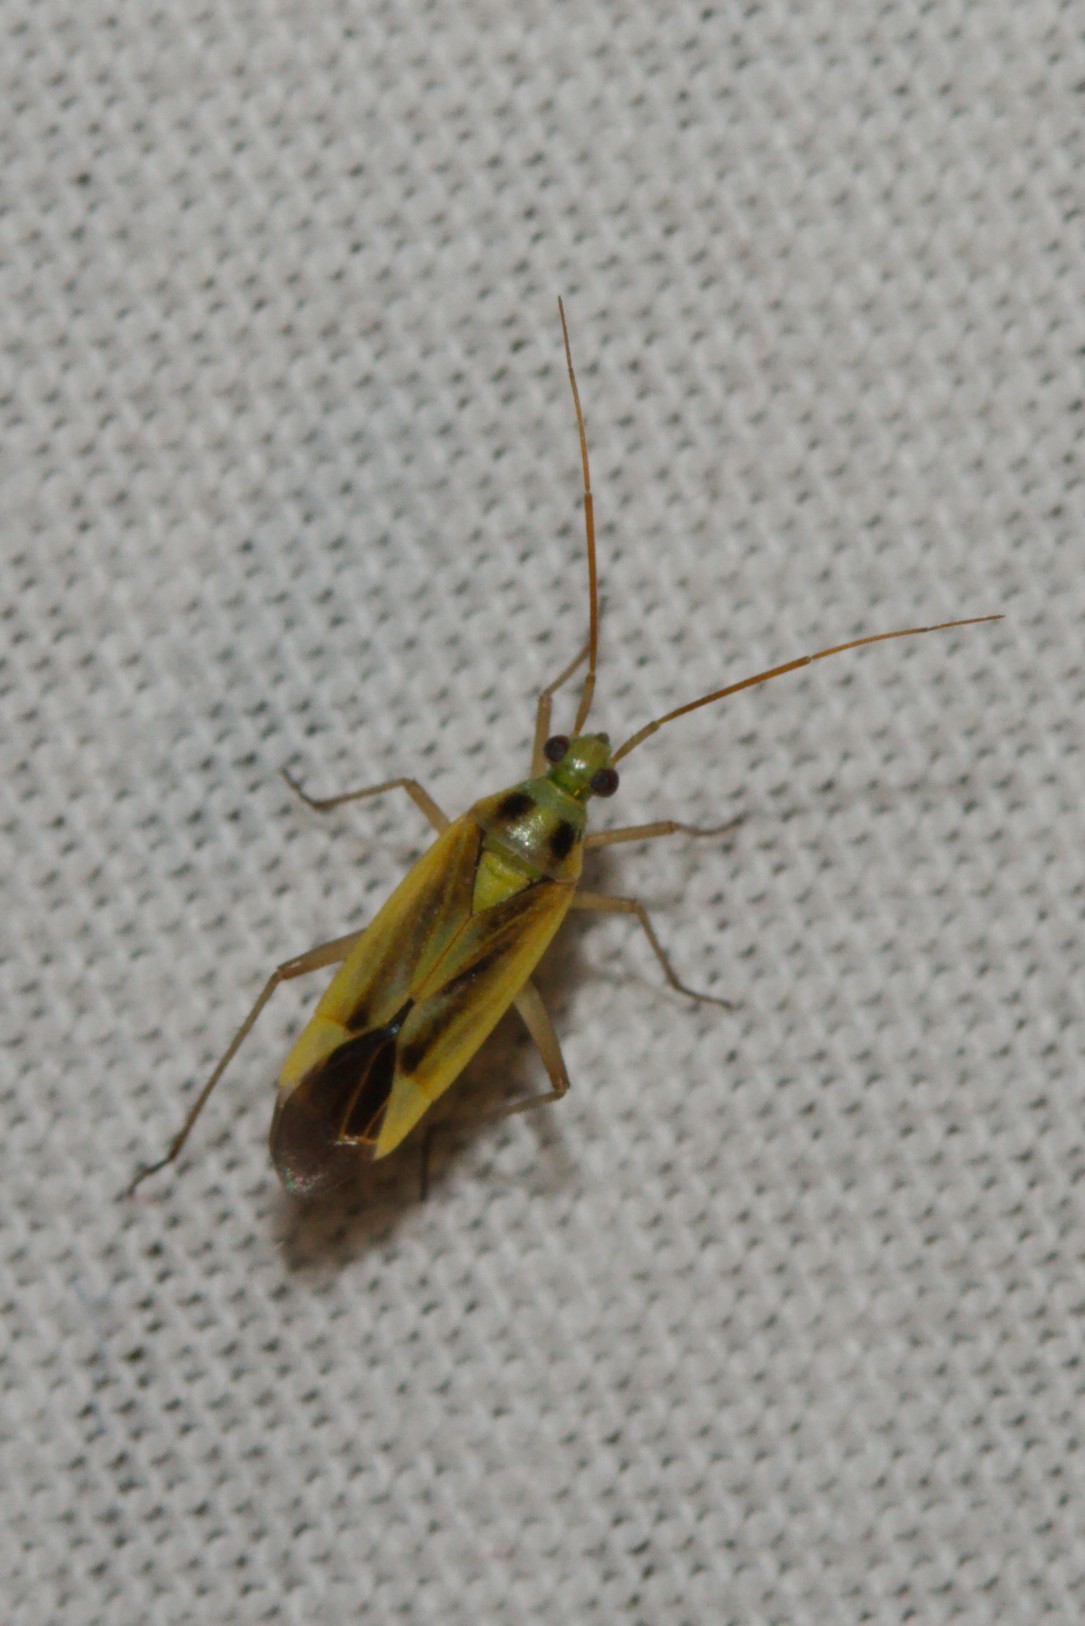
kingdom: Animalia
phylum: Arthropoda
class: Insecta
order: Hemiptera
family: Miridae
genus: Stenotus
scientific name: Stenotus binotatus
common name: Plant bug
